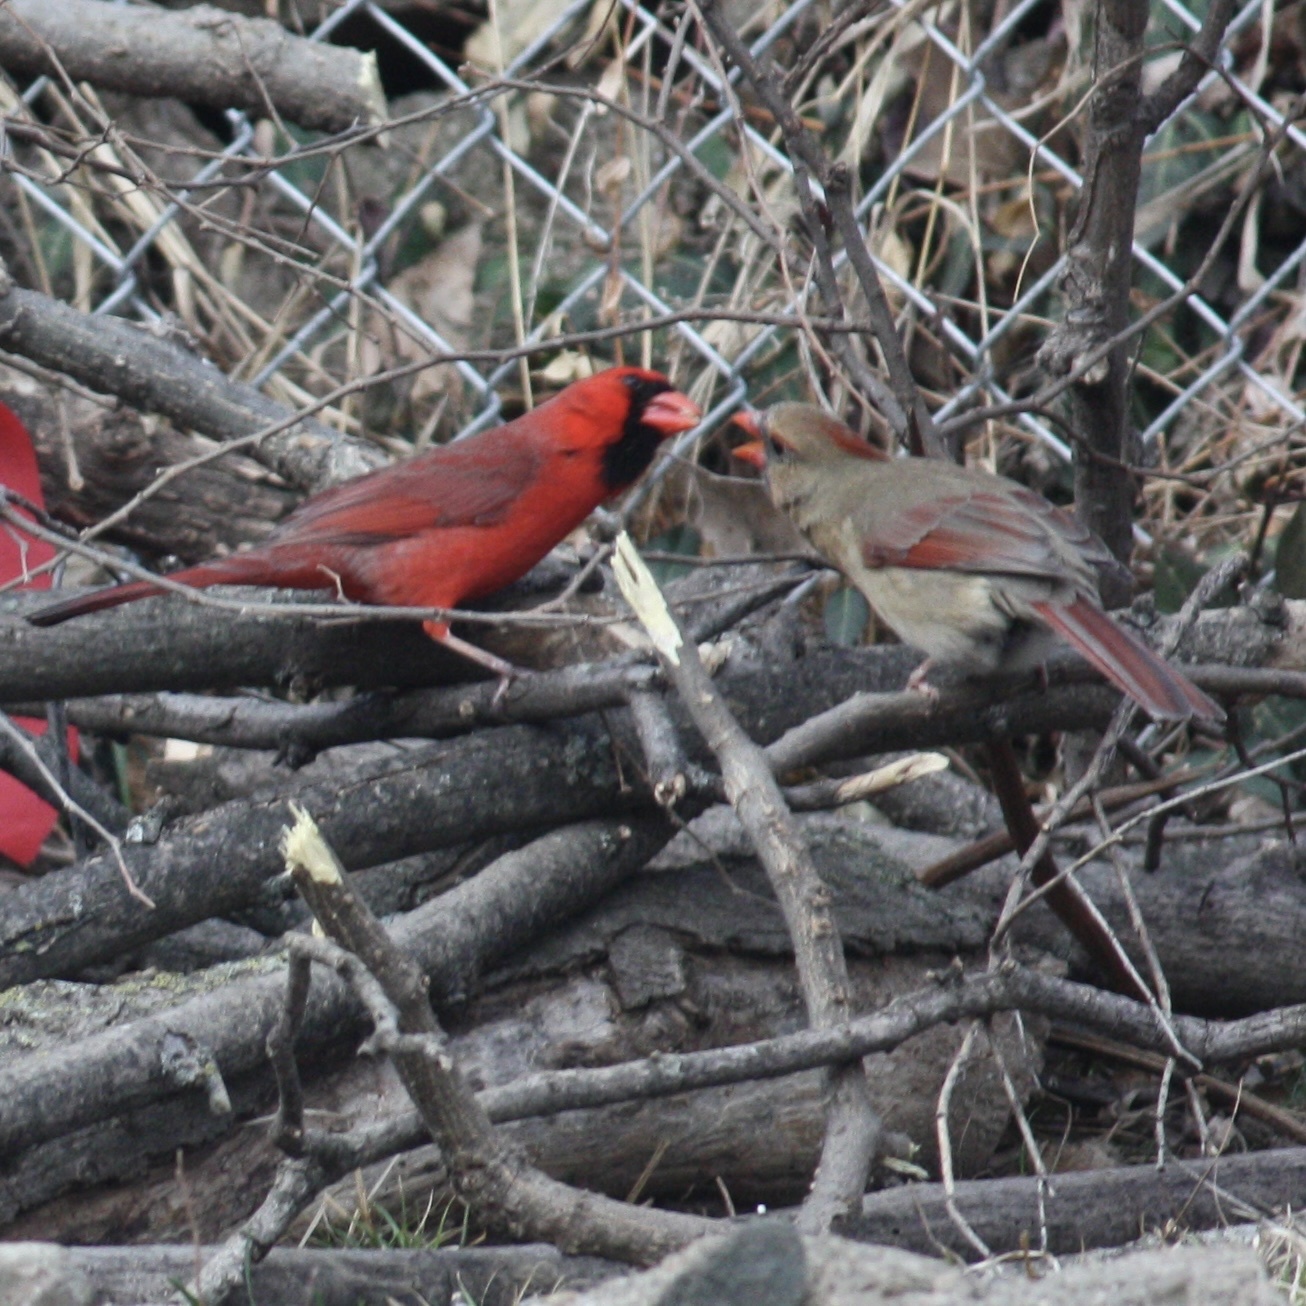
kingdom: Animalia
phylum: Chordata
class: Aves
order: Passeriformes
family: Cardinalidae
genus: Cardinalis
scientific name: Cardinalis cardinalis
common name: Northern cardinal
